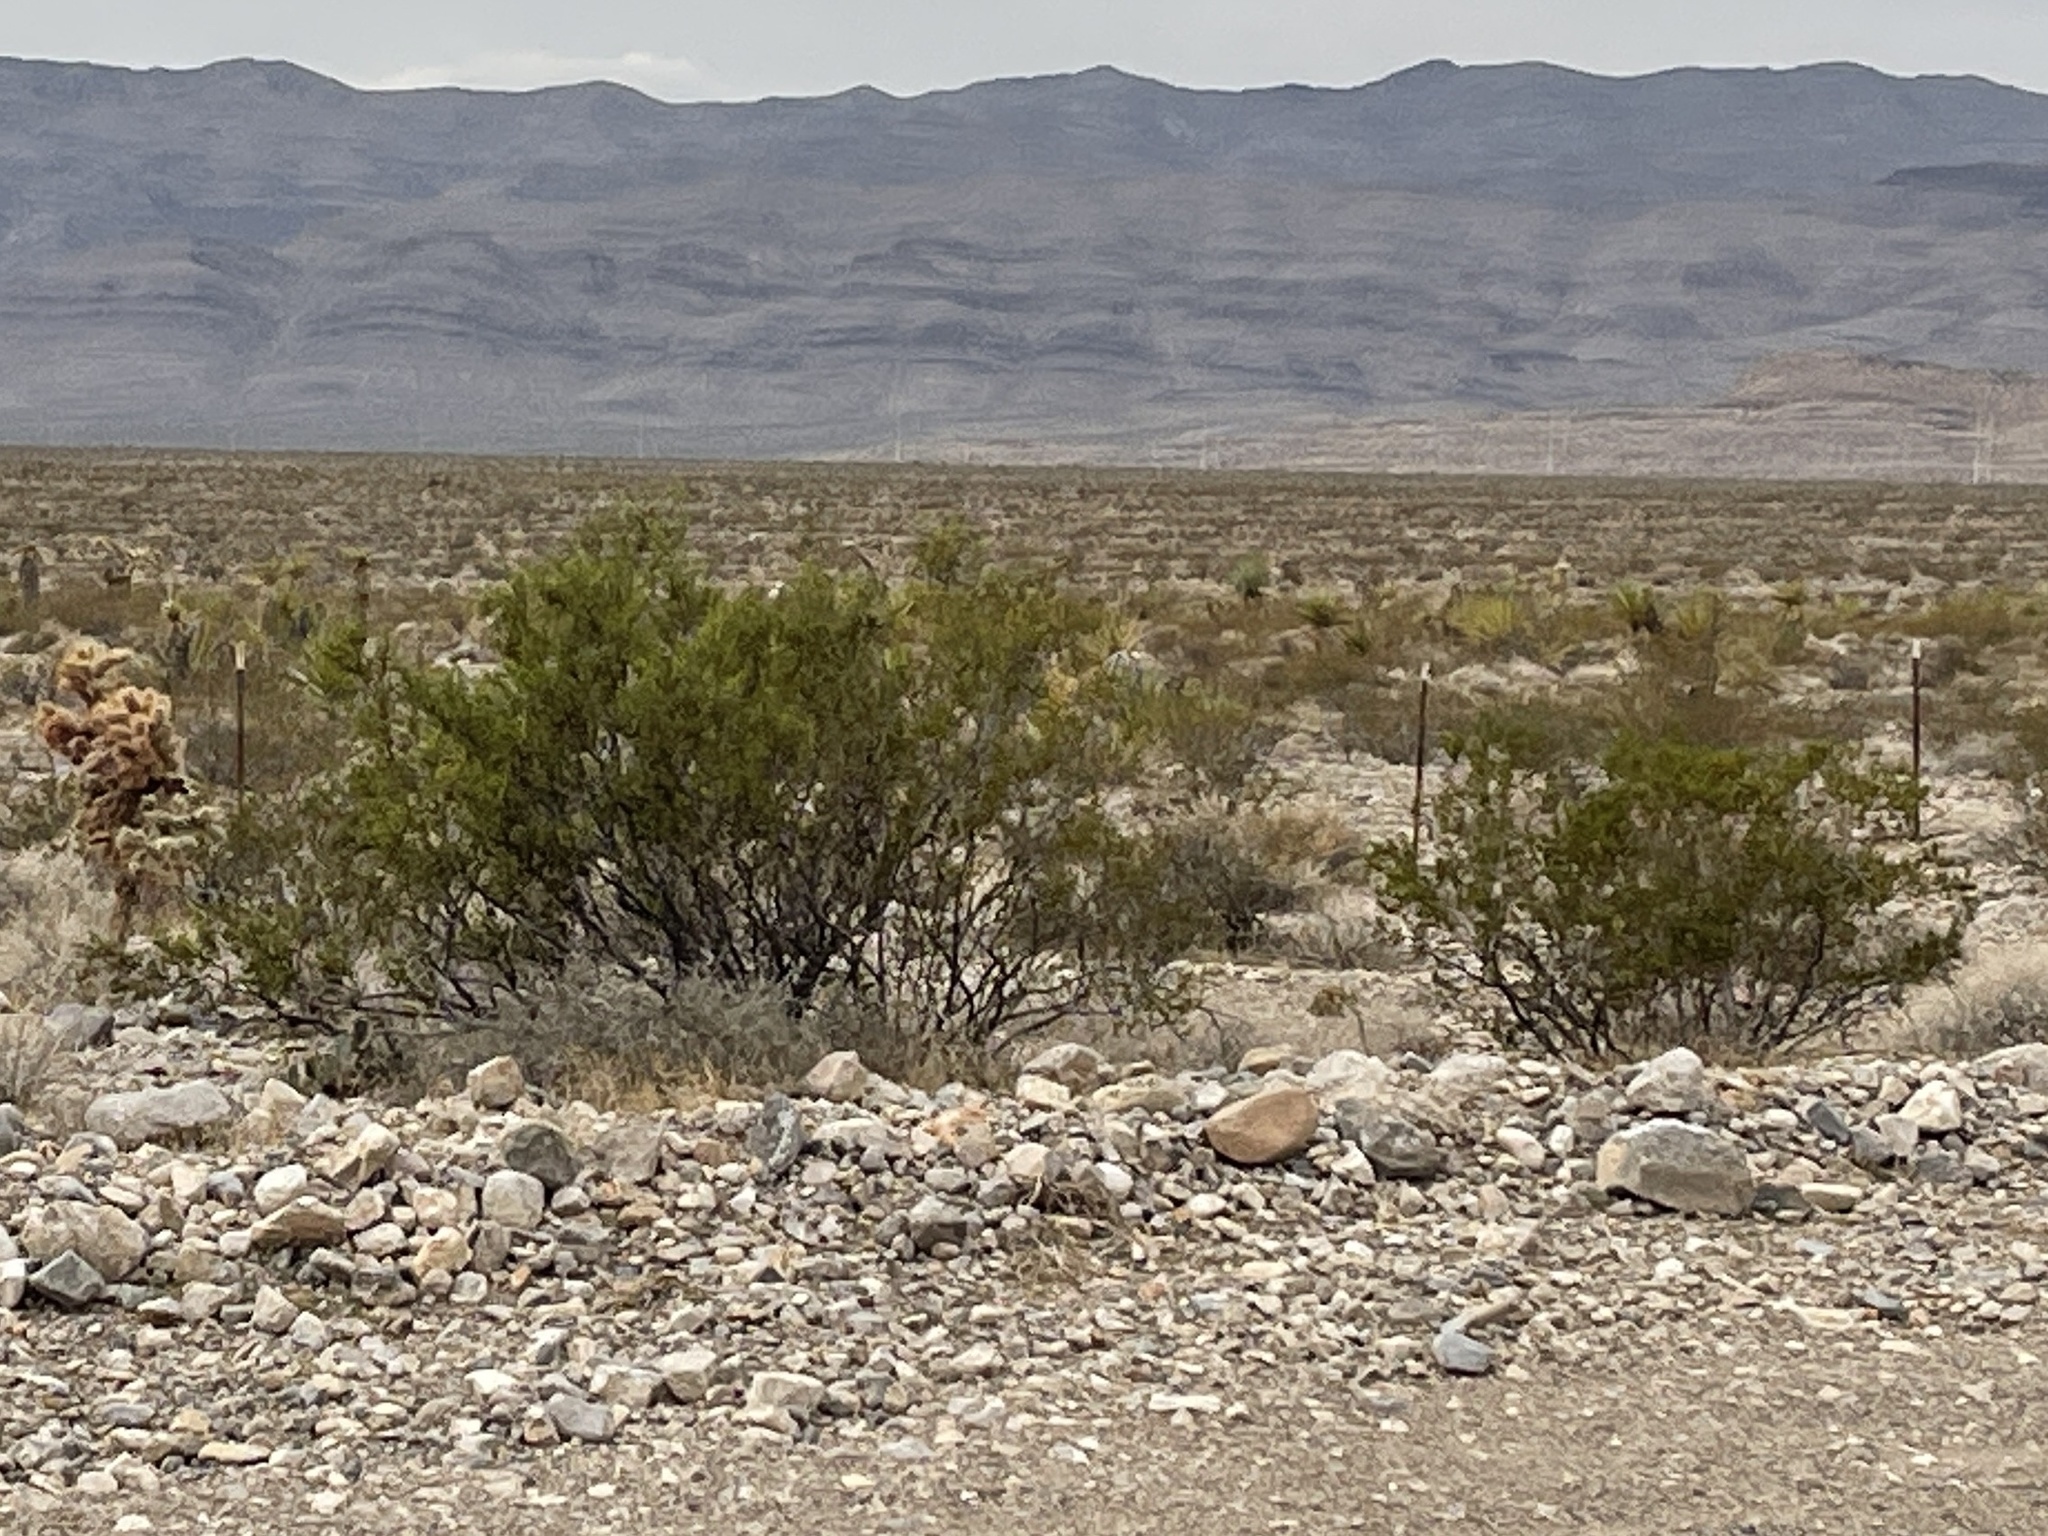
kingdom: Plantae
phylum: Tracheophyta
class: Magnoliopsida
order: Zygophyllales
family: Zygophyllaceae
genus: Larrea
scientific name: Larrea tridentata
